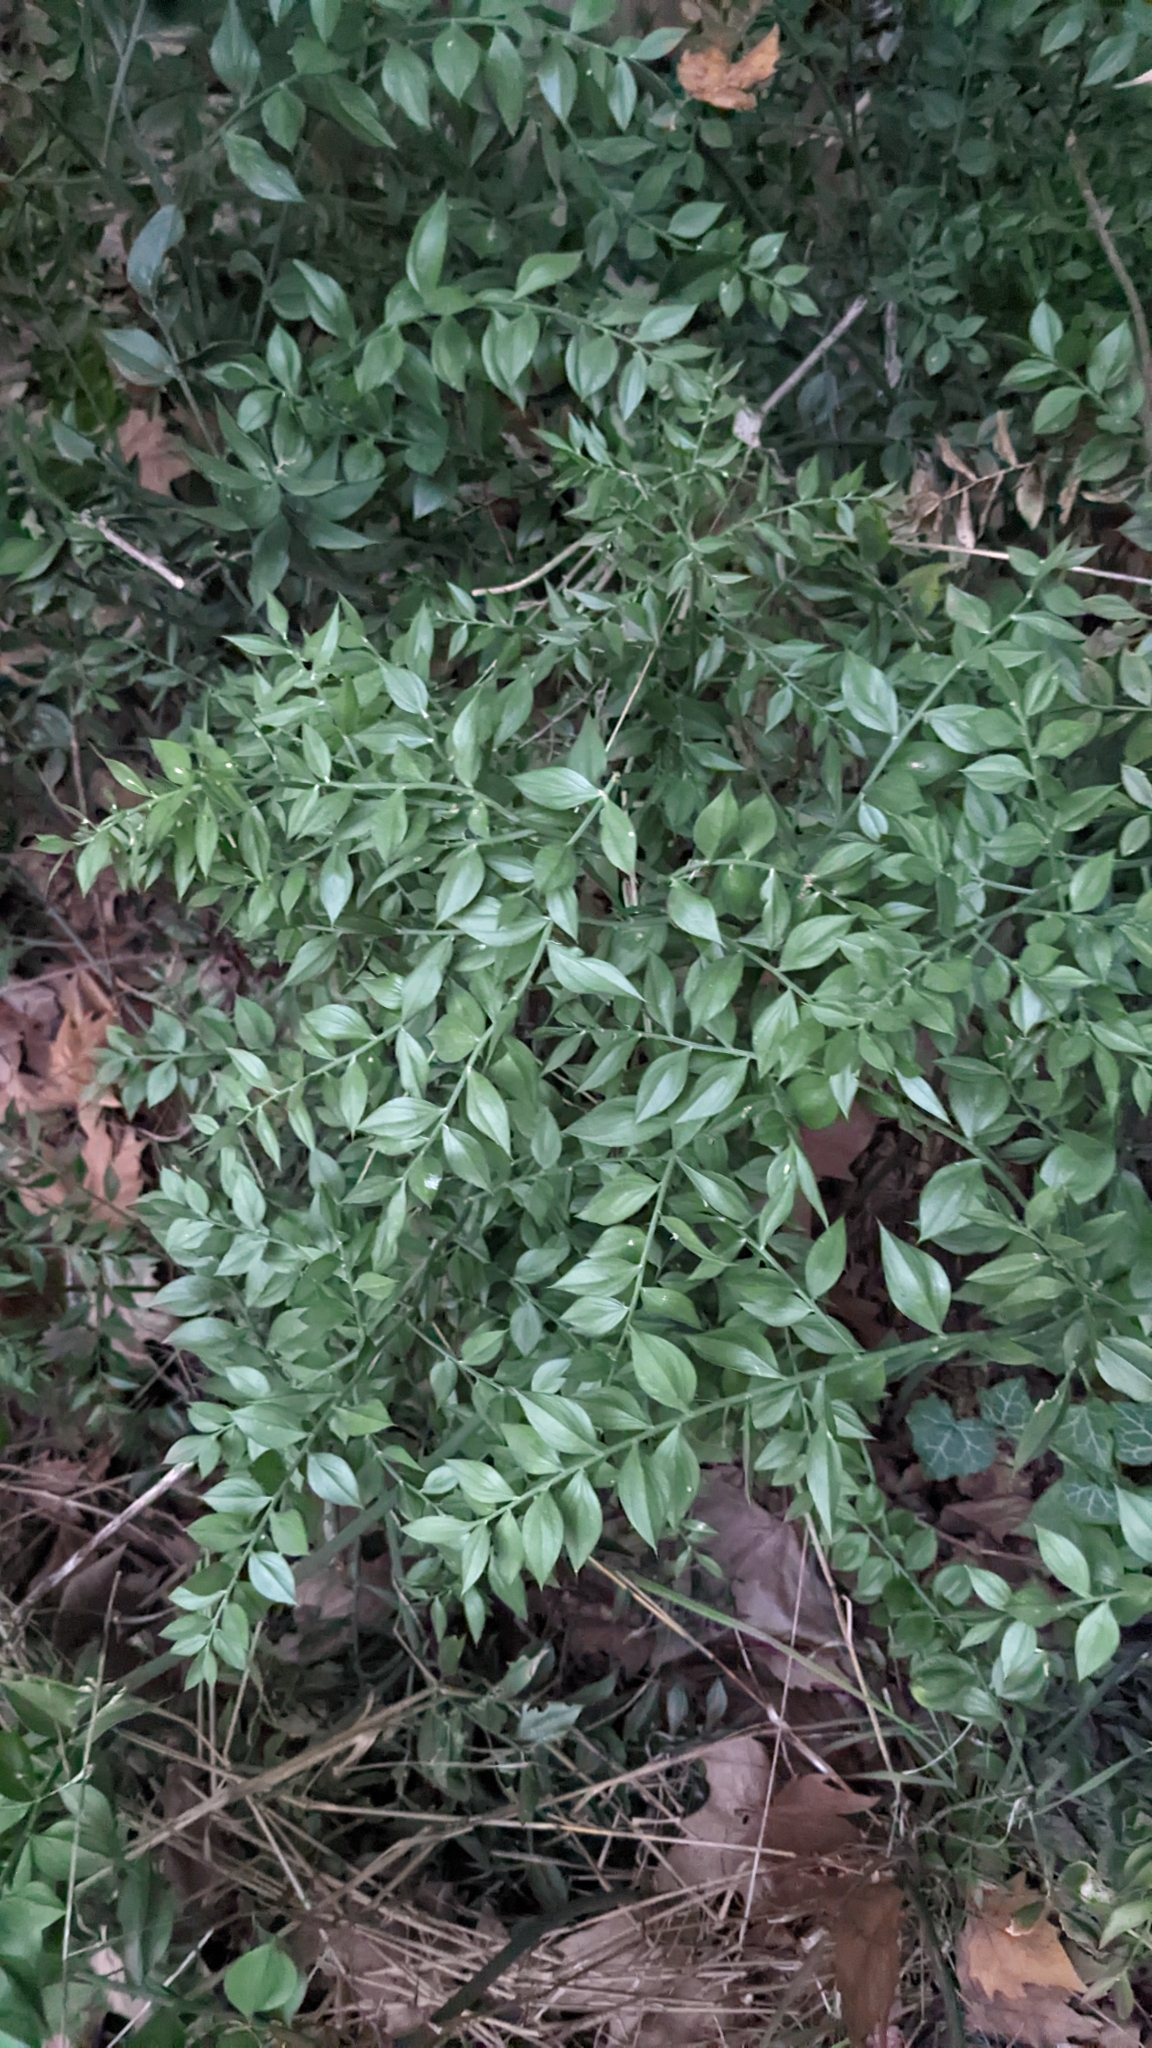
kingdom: Plantae
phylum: Tracheophyta
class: Liliopsida
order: Asparagales
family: Asparagaceae
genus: Ruscus
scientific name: Ruscus aculeatus
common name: Butcher's-broom
